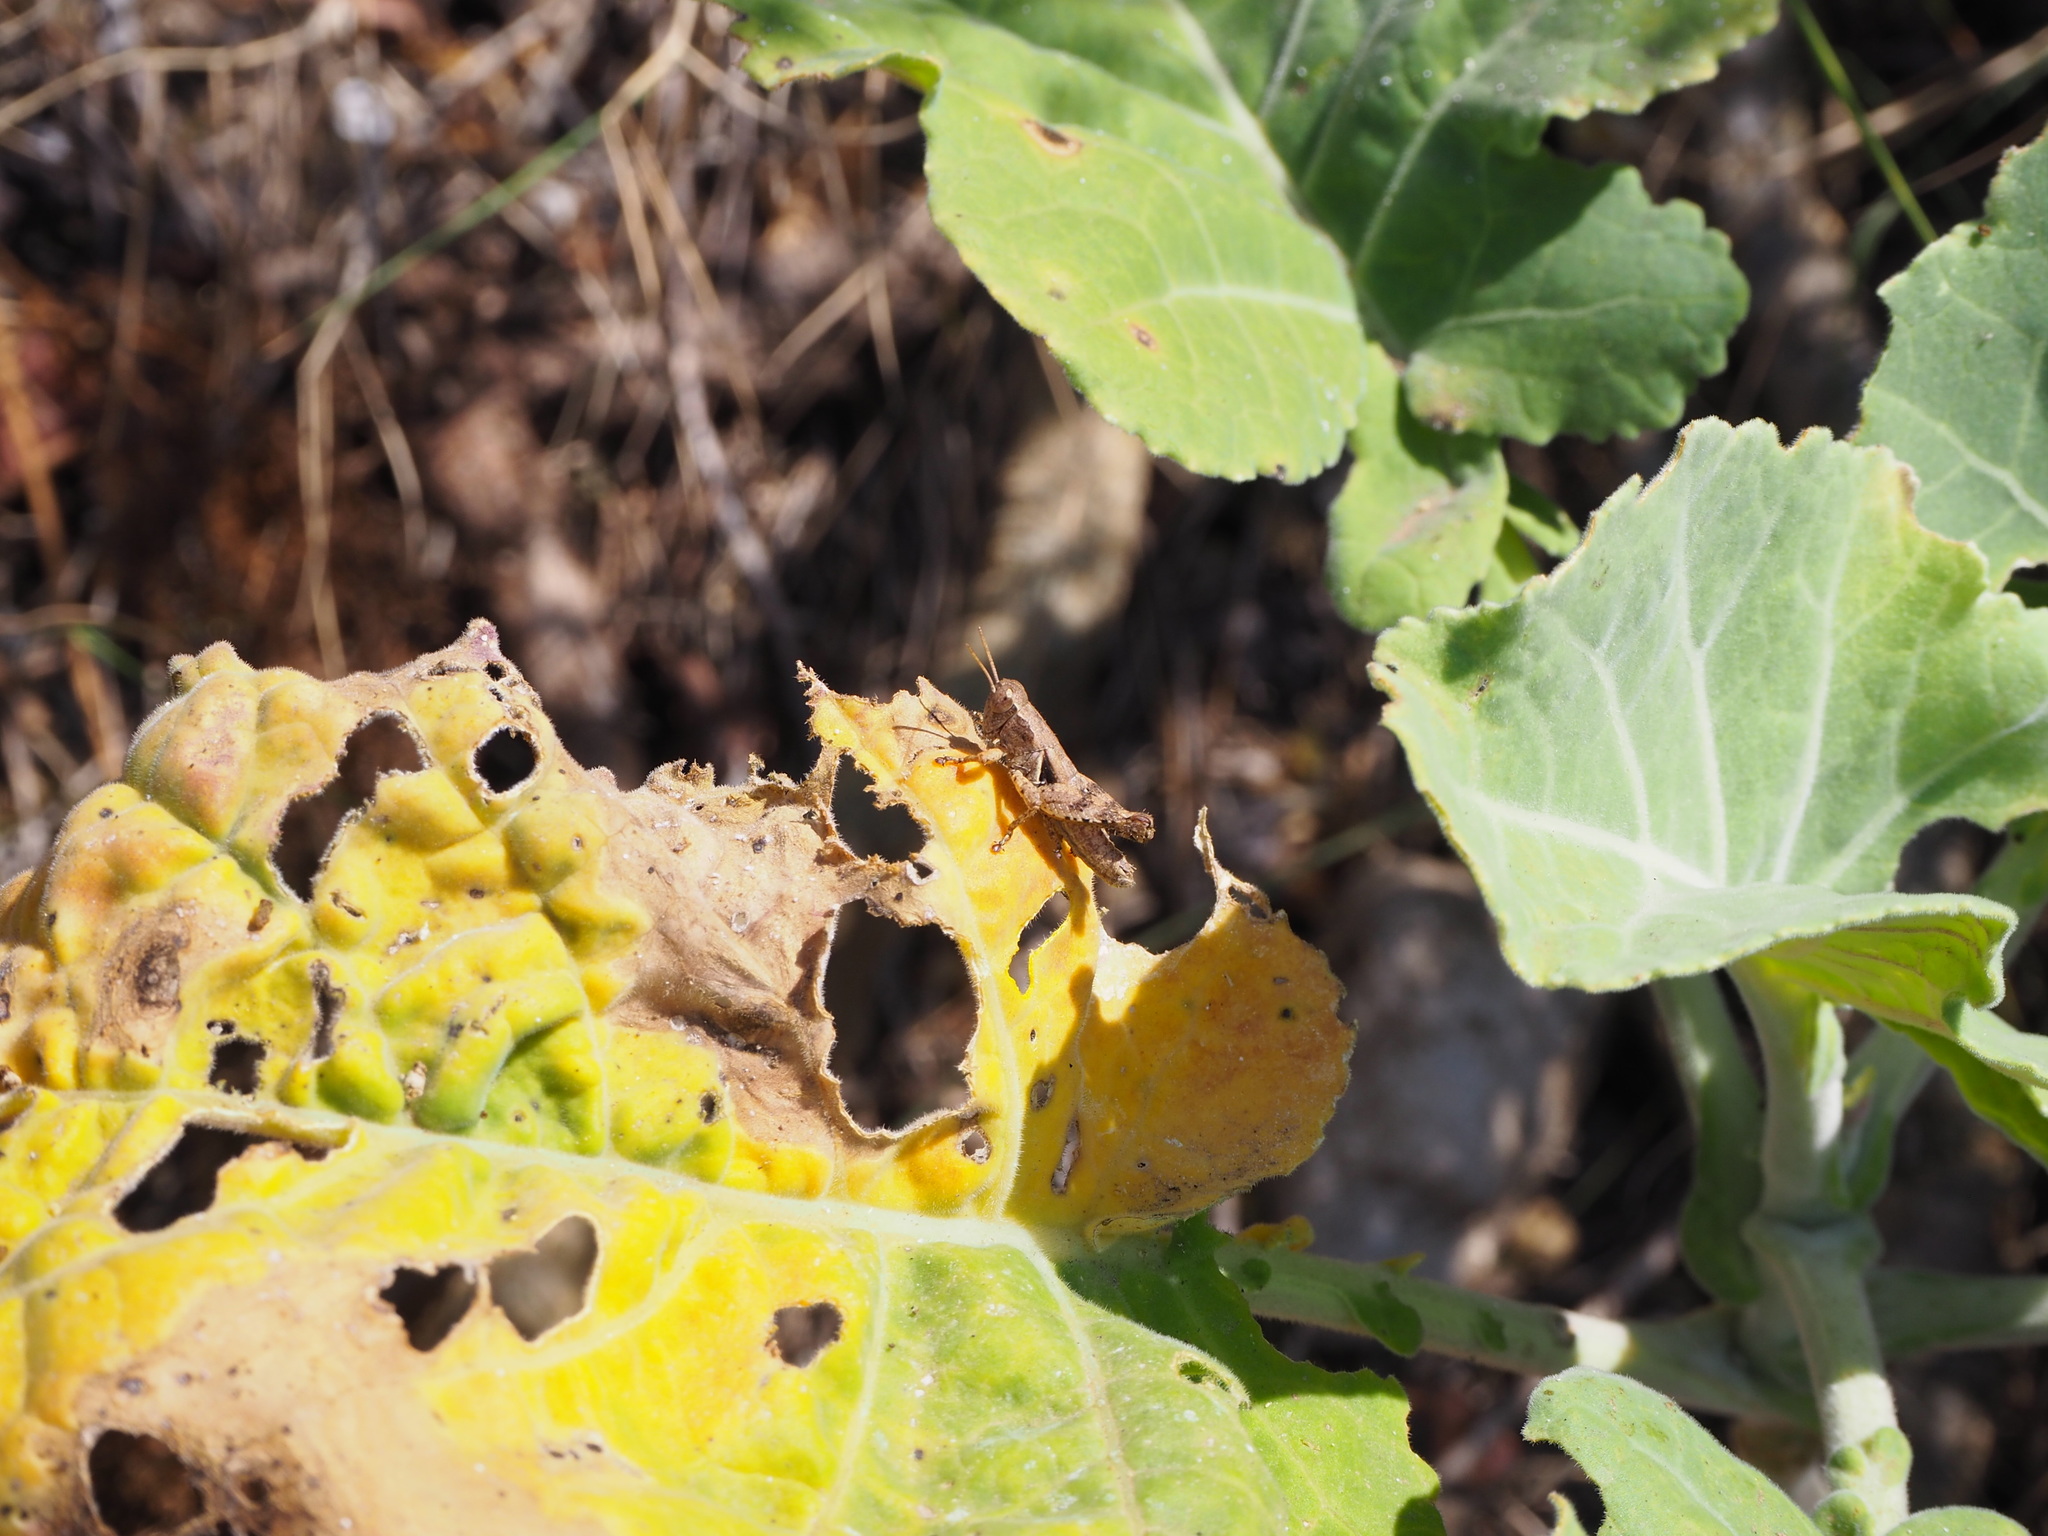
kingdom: Animalia
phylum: Arthropoda
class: Insecta
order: Orthoptera
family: Acrididae
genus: Pezotettix
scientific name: Pezotettix giornae
